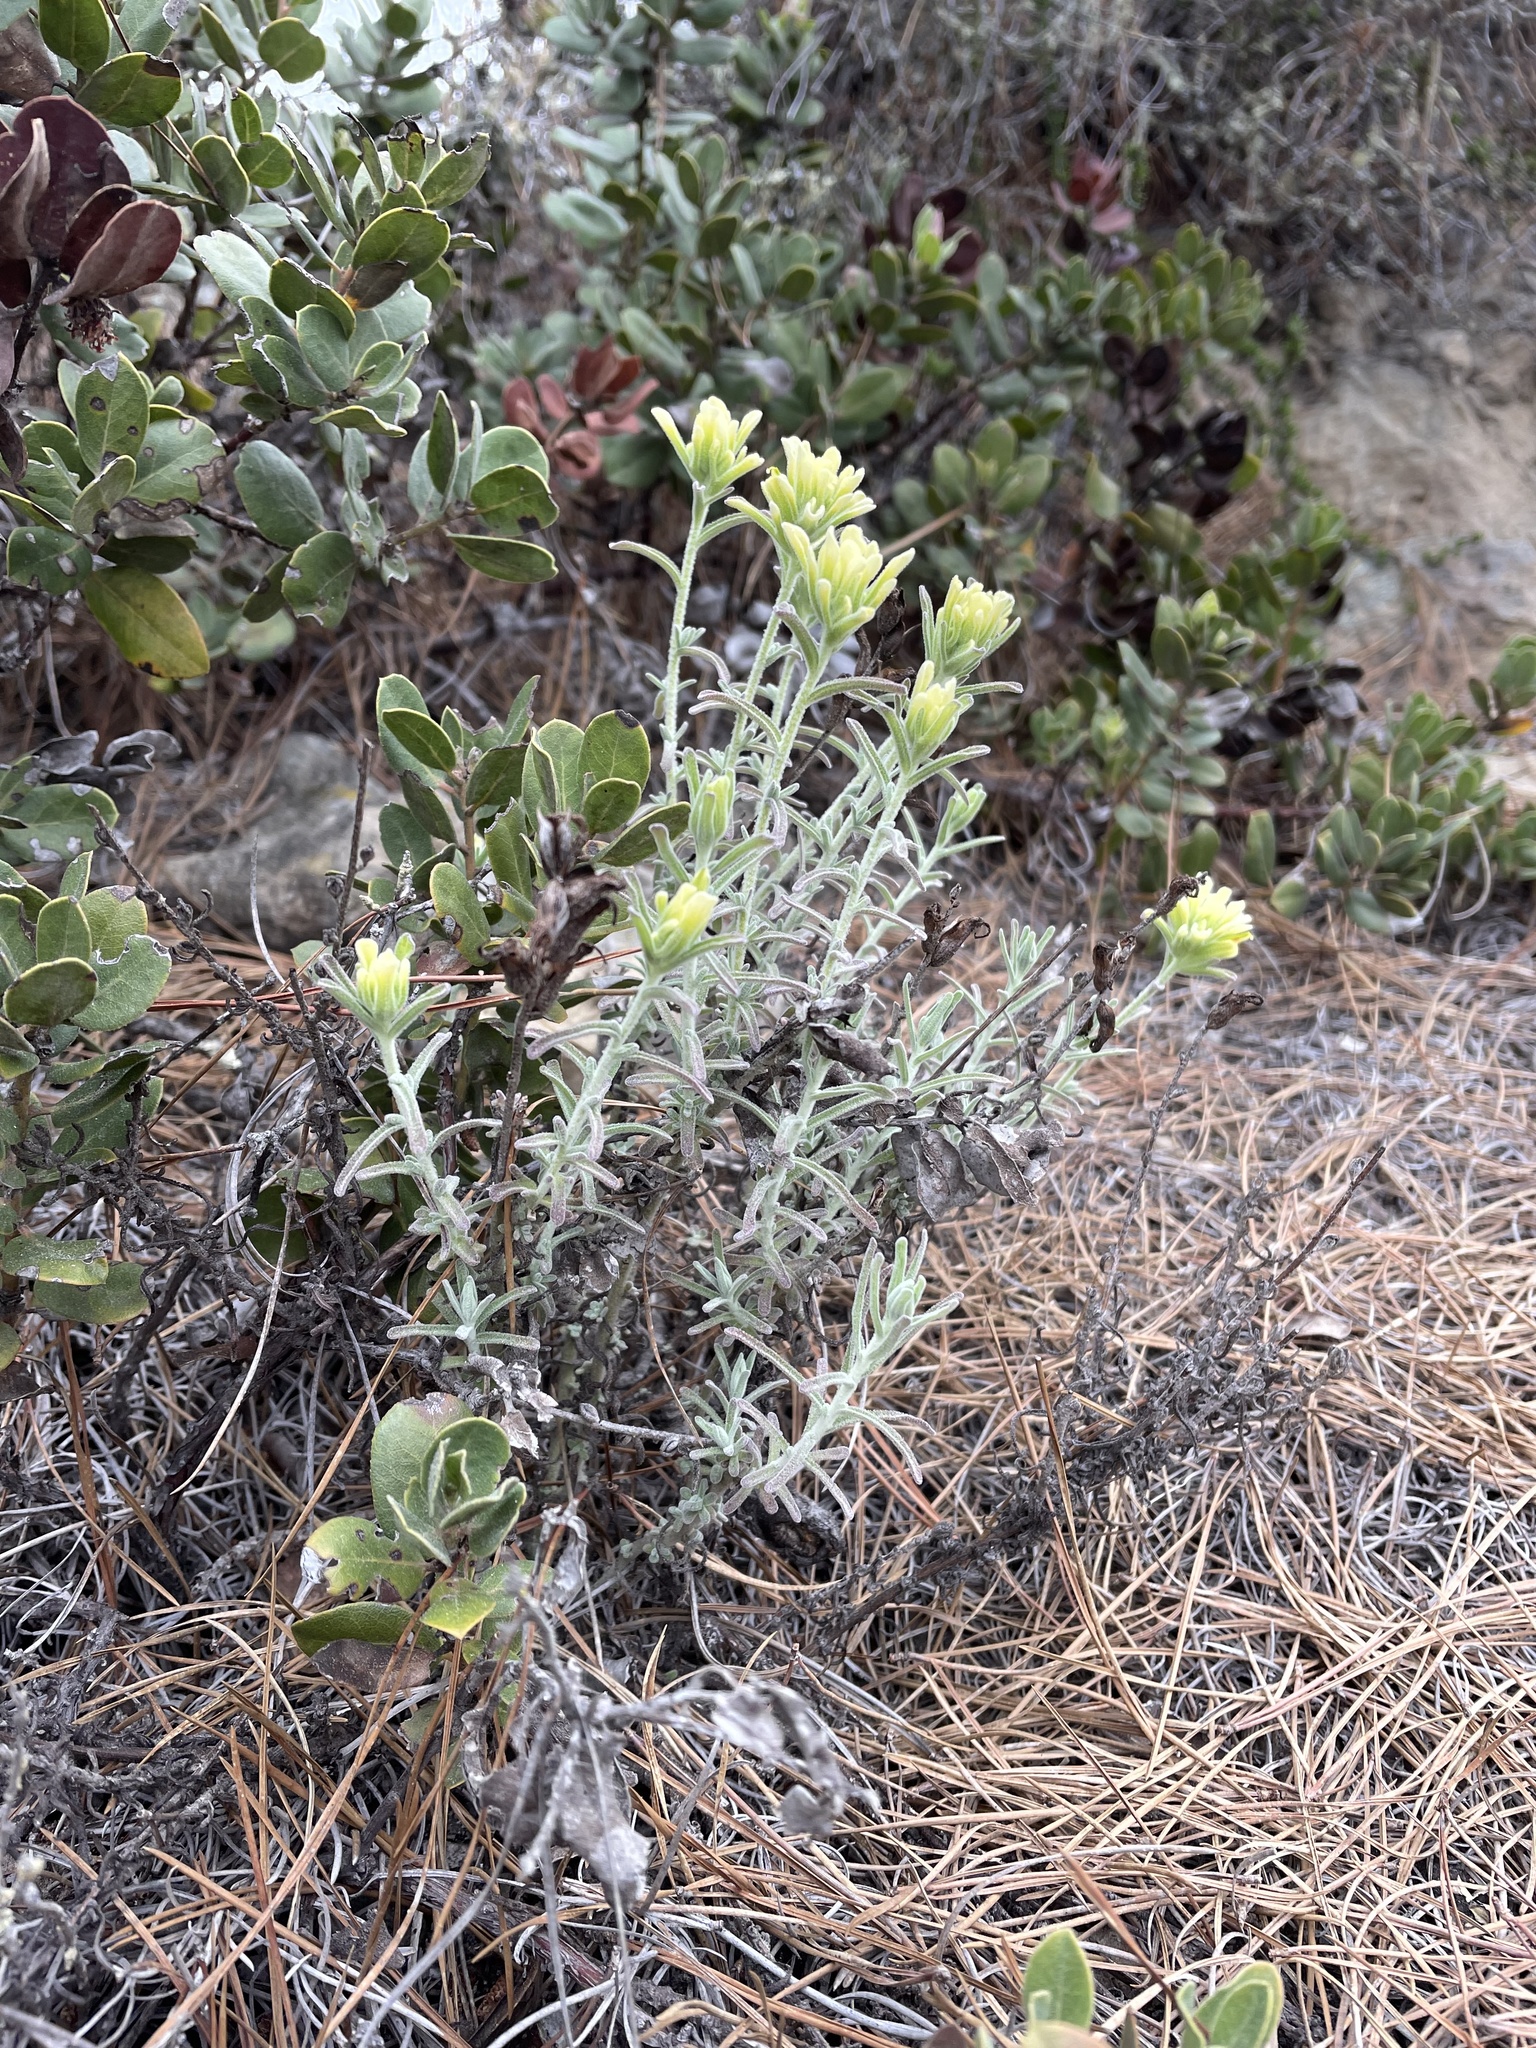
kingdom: Plantae
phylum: Tracheophyta
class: Magnoliopsida
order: Lamiales
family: Orobanchaceae
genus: Castilleja
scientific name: Castilleja foliolosa
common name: Woolly indian paintbrush
